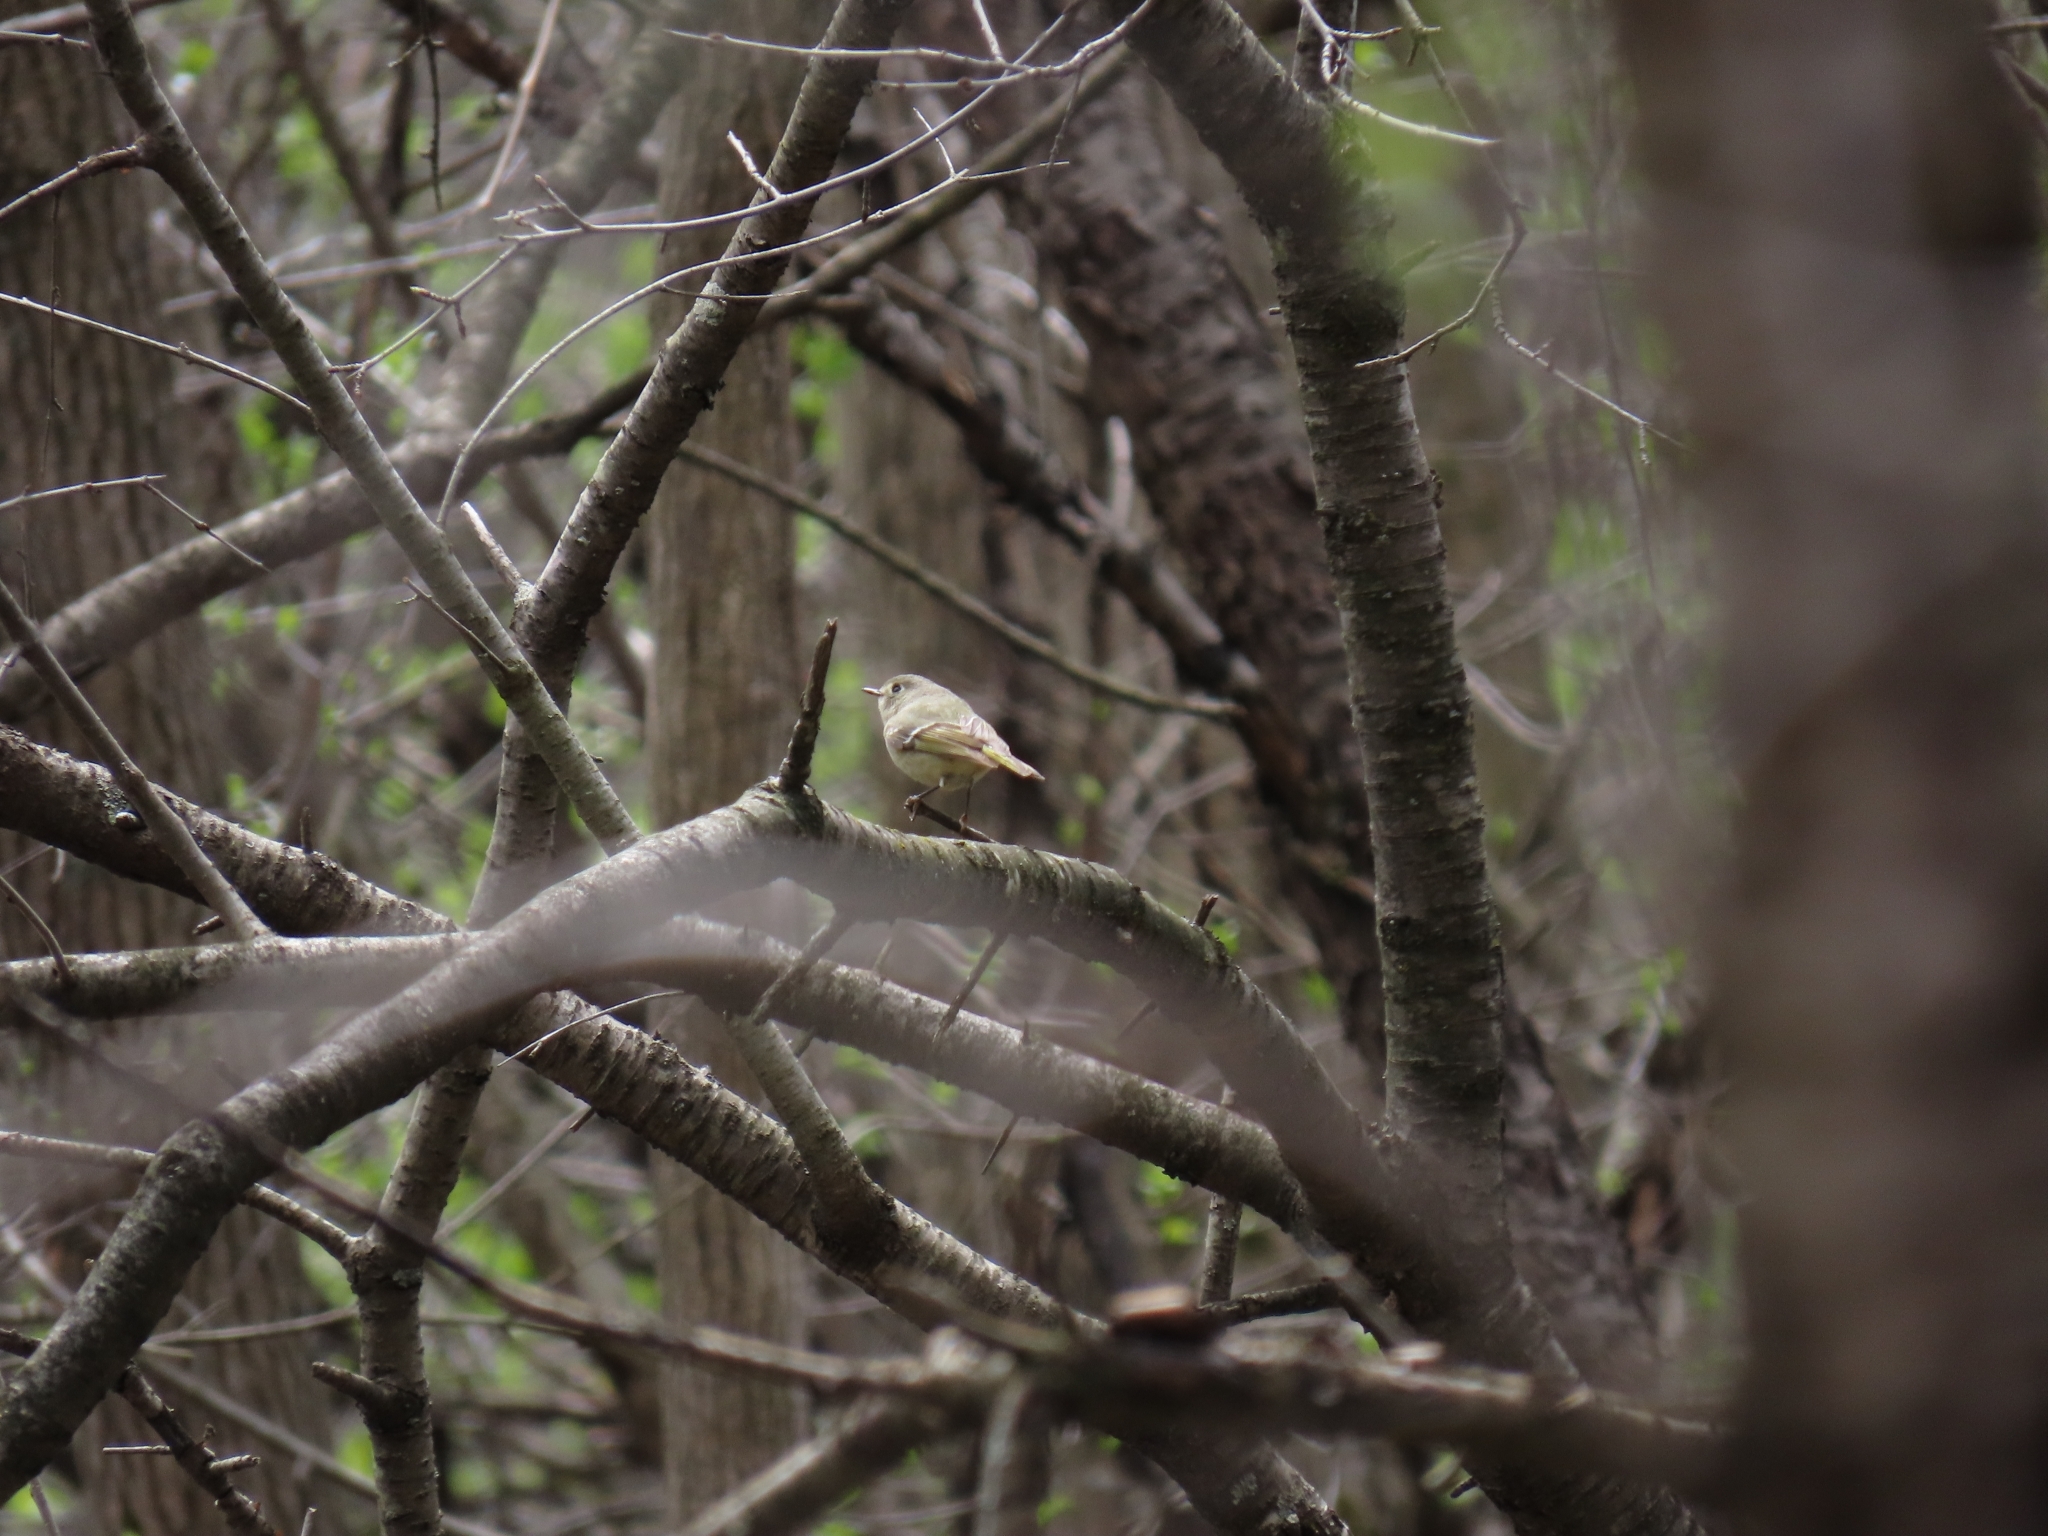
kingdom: Animalia
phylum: Chordata
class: Aves
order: Passeriformes
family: Regulidae
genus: Regulus
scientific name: Regulus calendula
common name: Ruby-crowned kinglet
